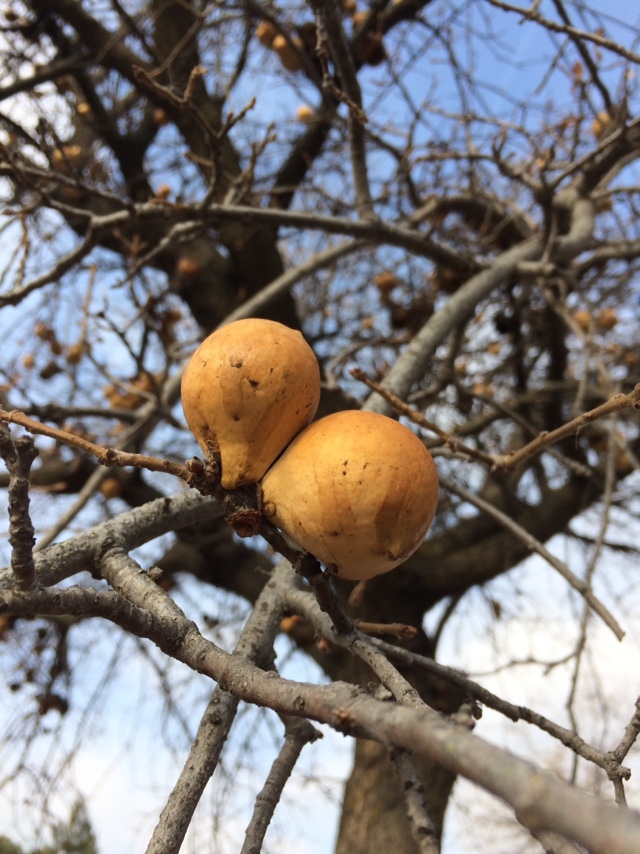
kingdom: Animalia
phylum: Arthropoda
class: Insecta
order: Hymenoptera
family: Cynipidae
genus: Andricus
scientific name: Andricus quercuscalifornicus
